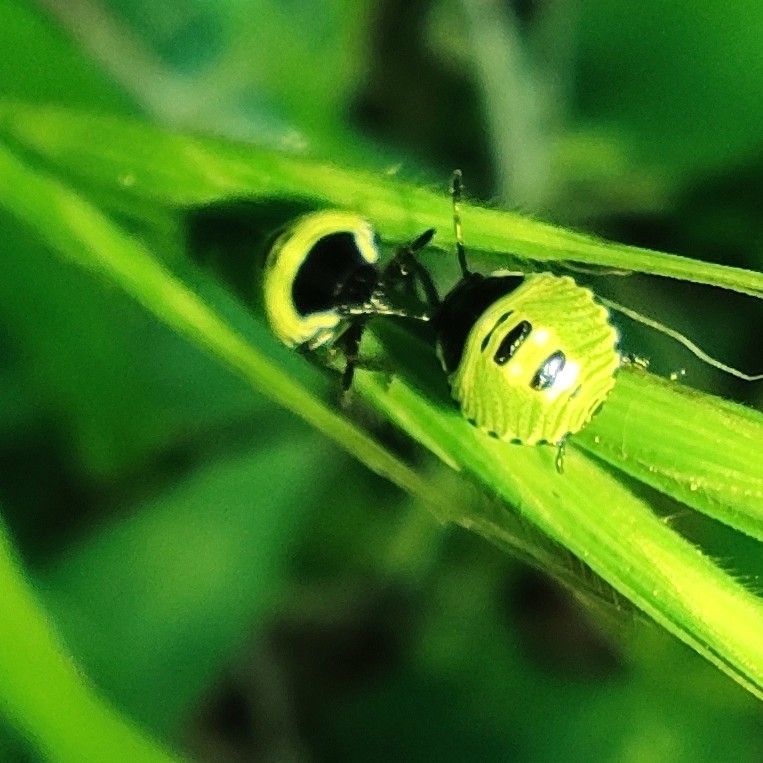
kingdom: Animalia
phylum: Arthropoda
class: Insecta
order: Hemiptera
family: Pentatomidae
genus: Palomena
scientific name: Palomena prasina
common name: Green shieldbug
